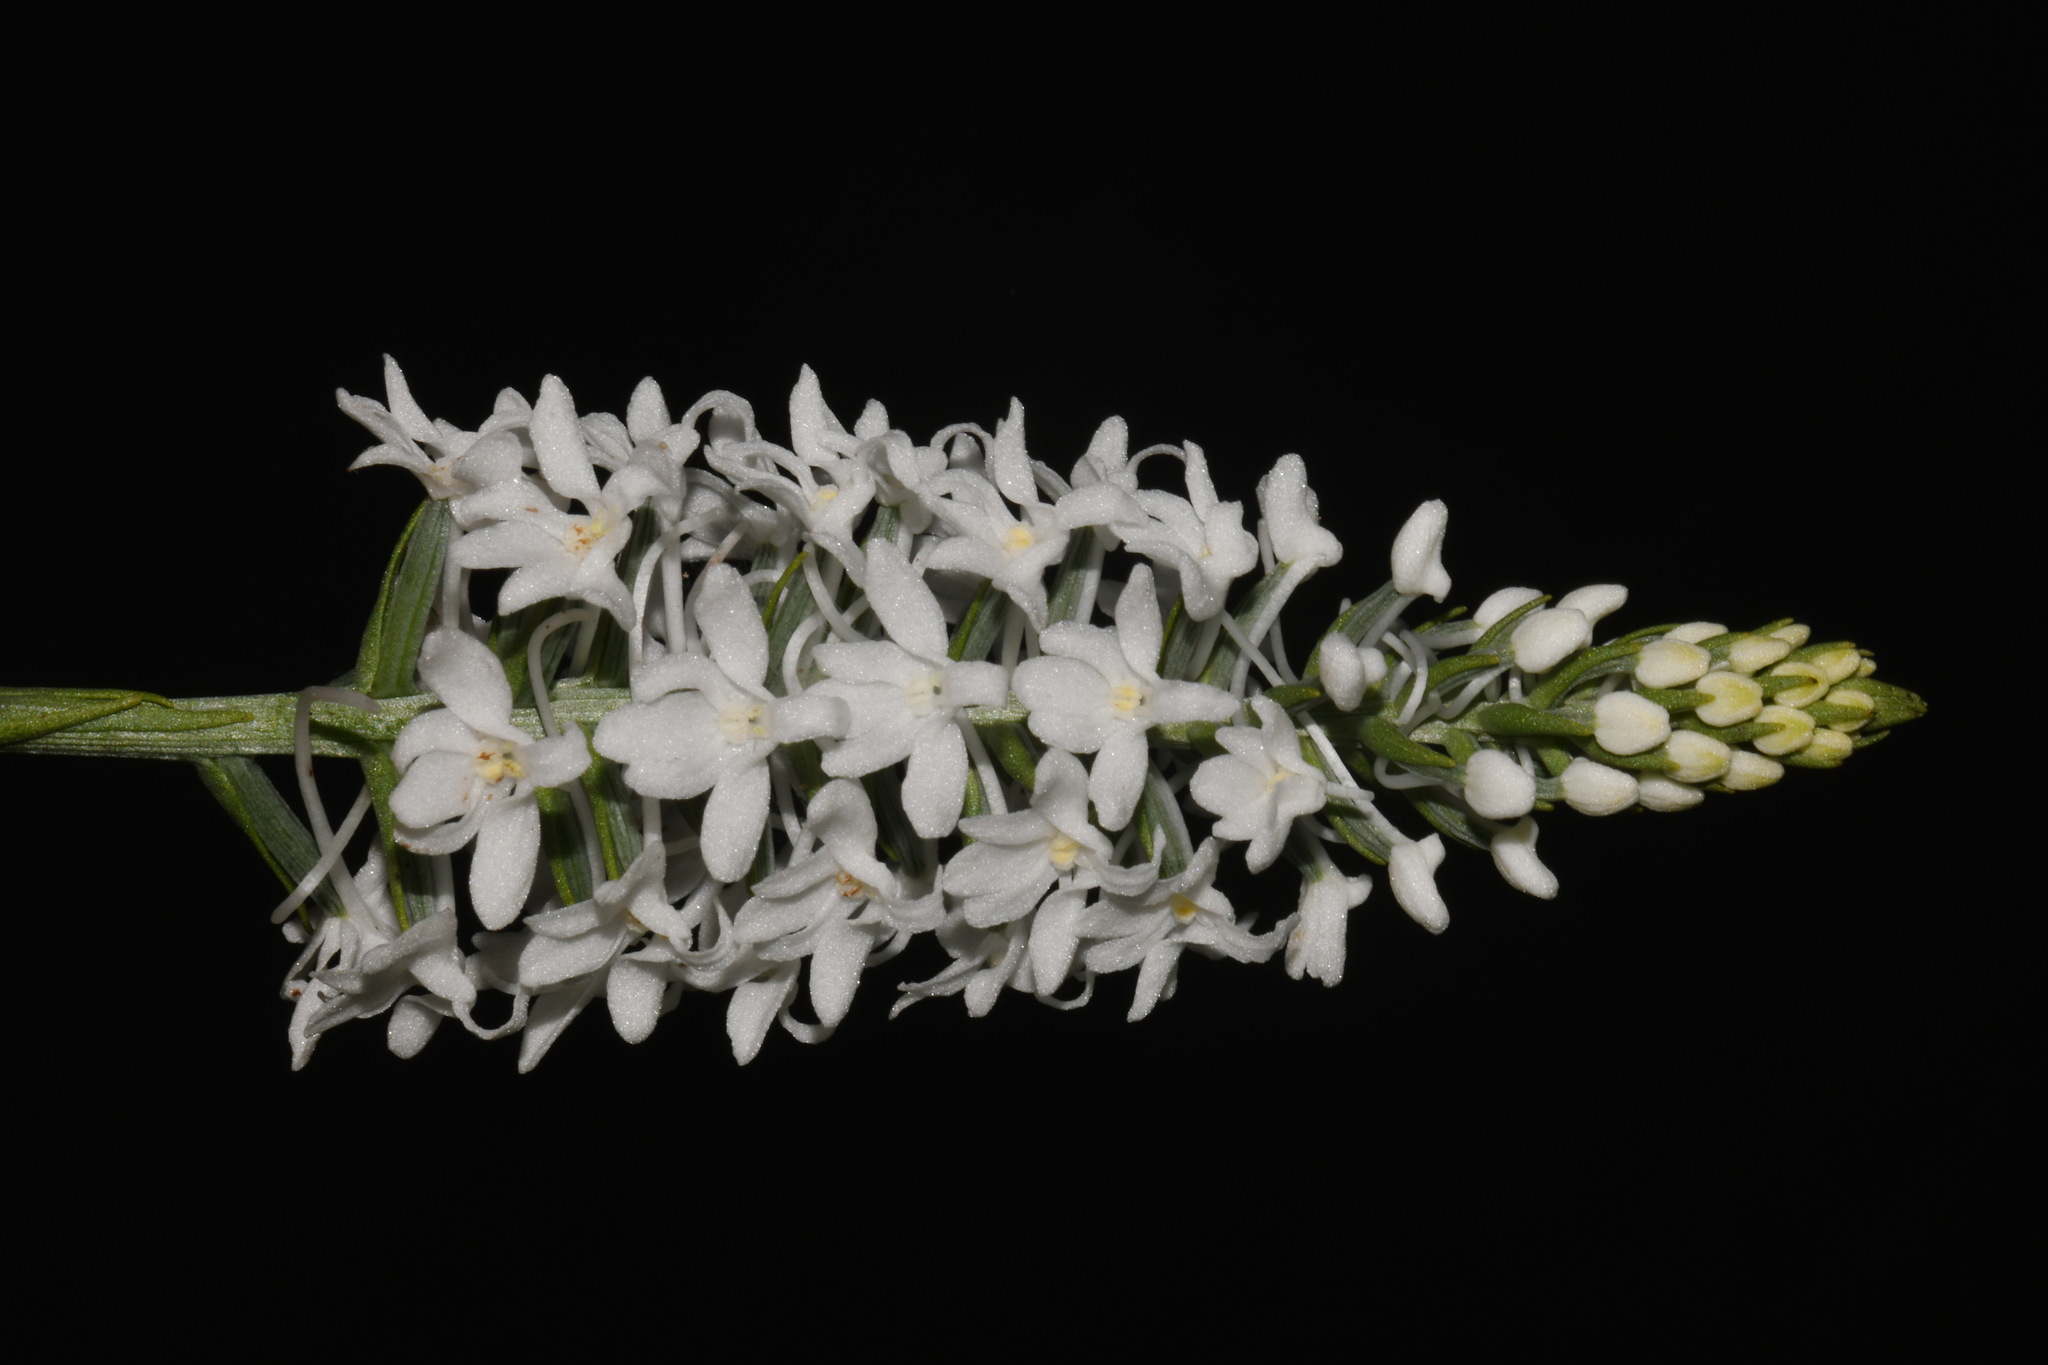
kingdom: Plantae
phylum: Tracheophyta
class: Liliopsida
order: Asparagales
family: Orchidaceae
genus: Platanthera
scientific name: Platanthera nivea
